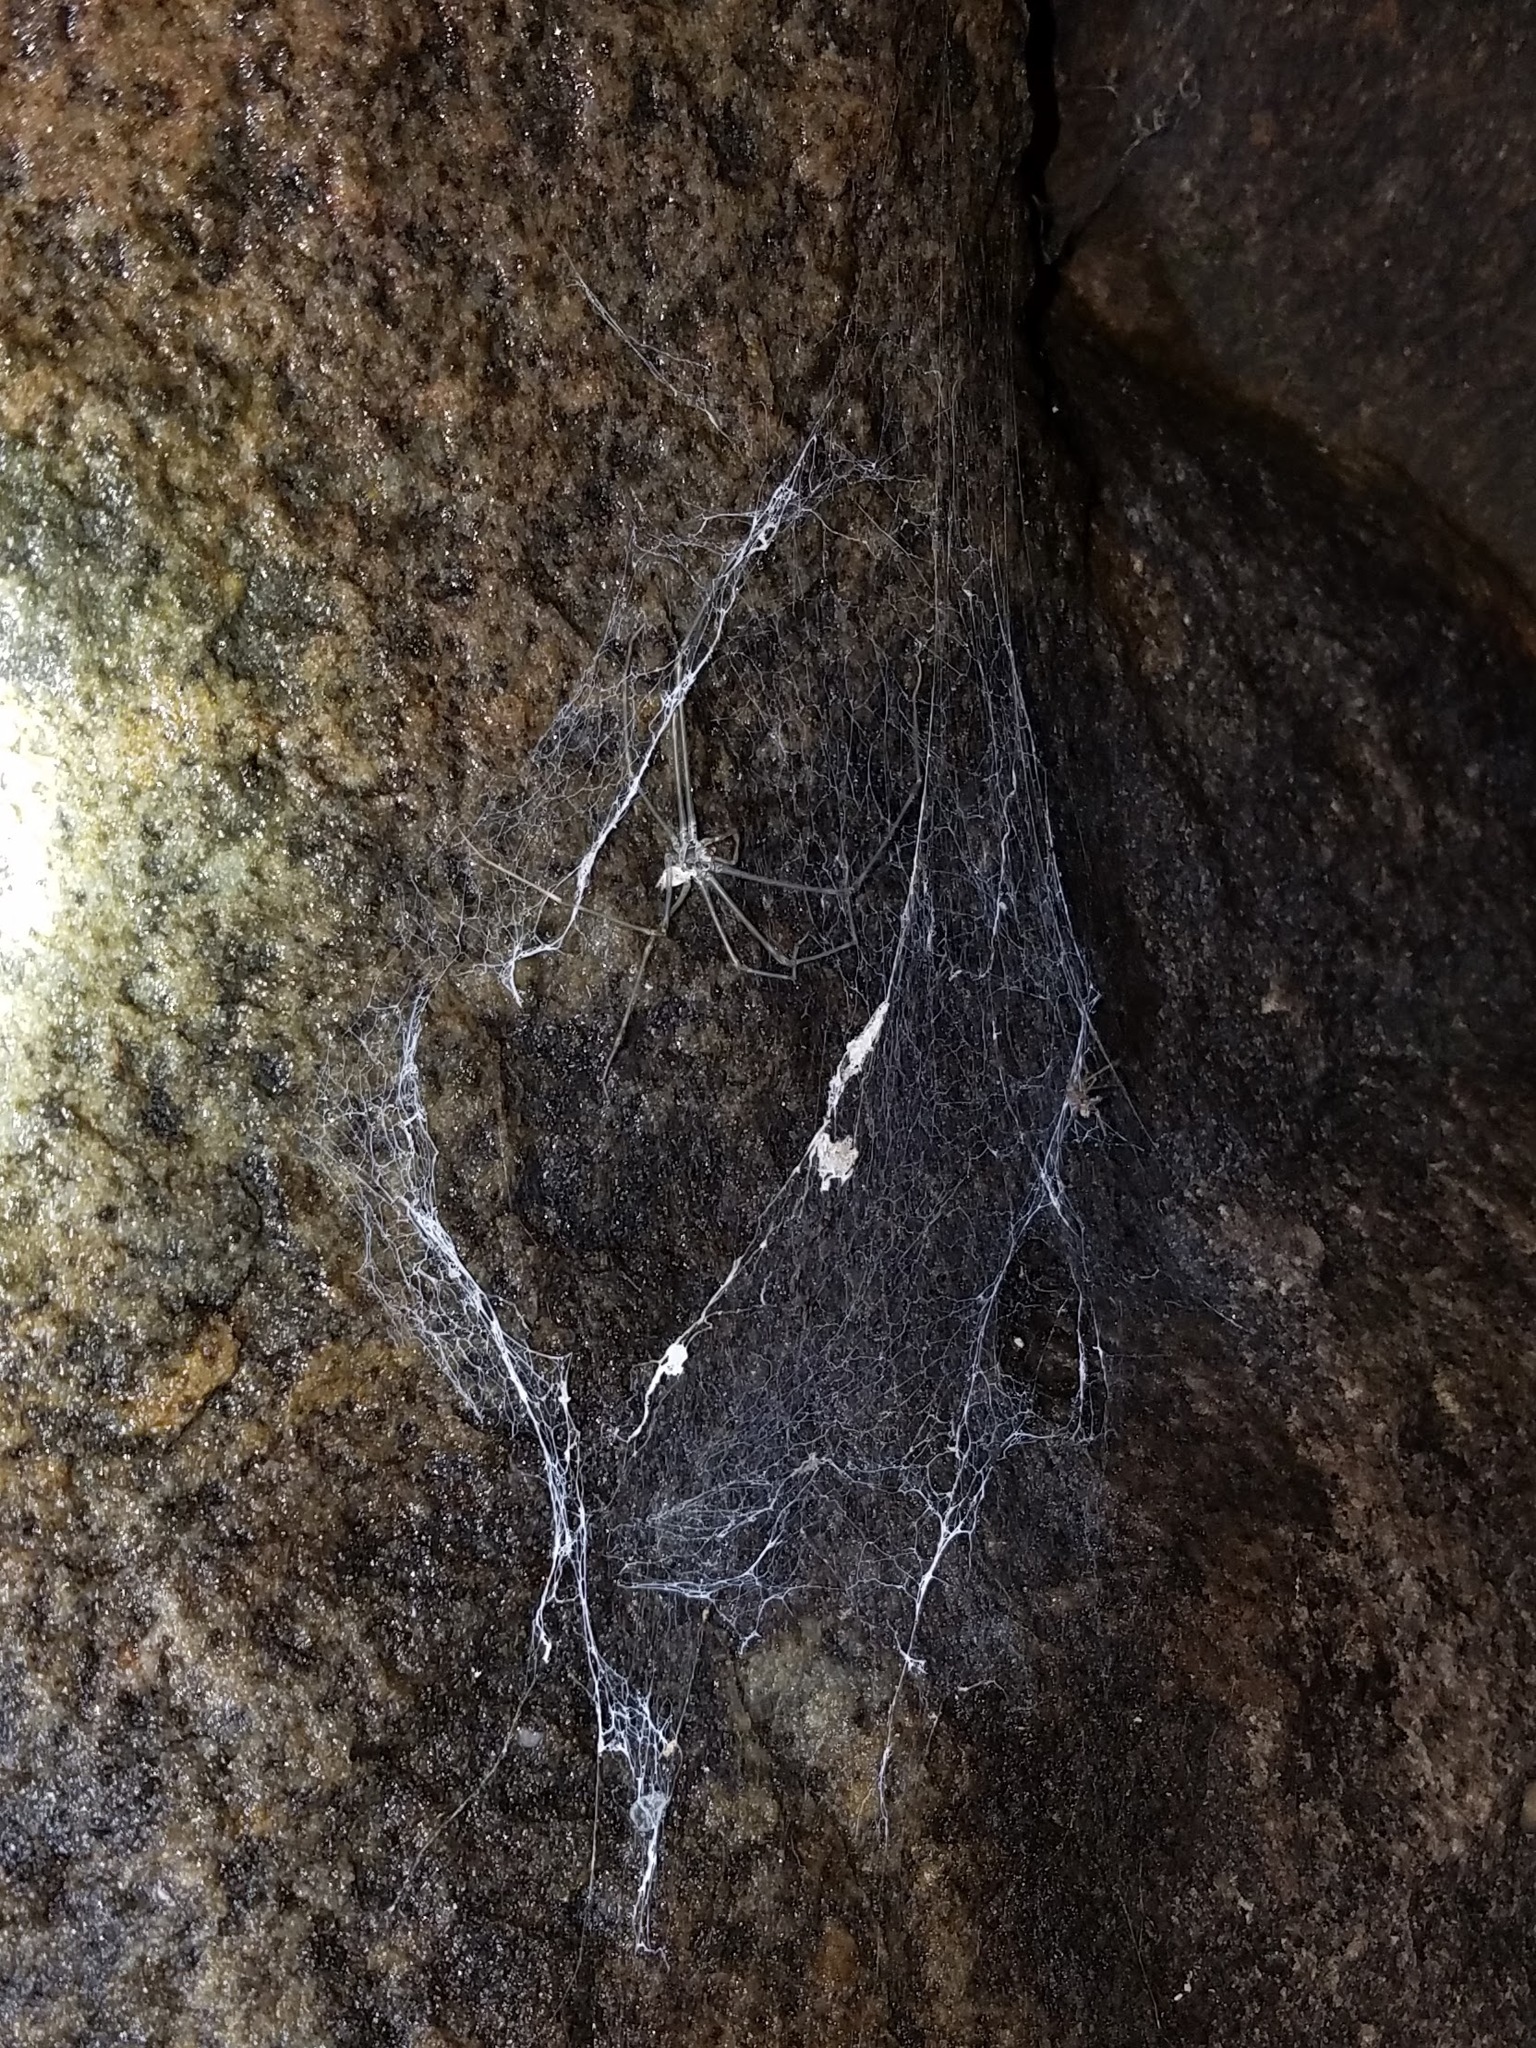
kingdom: Animalia
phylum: Arthropoda
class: Arachnida
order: Araneae
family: Hypochilidae
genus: Hypochilus
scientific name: Hypochilus thorelli
